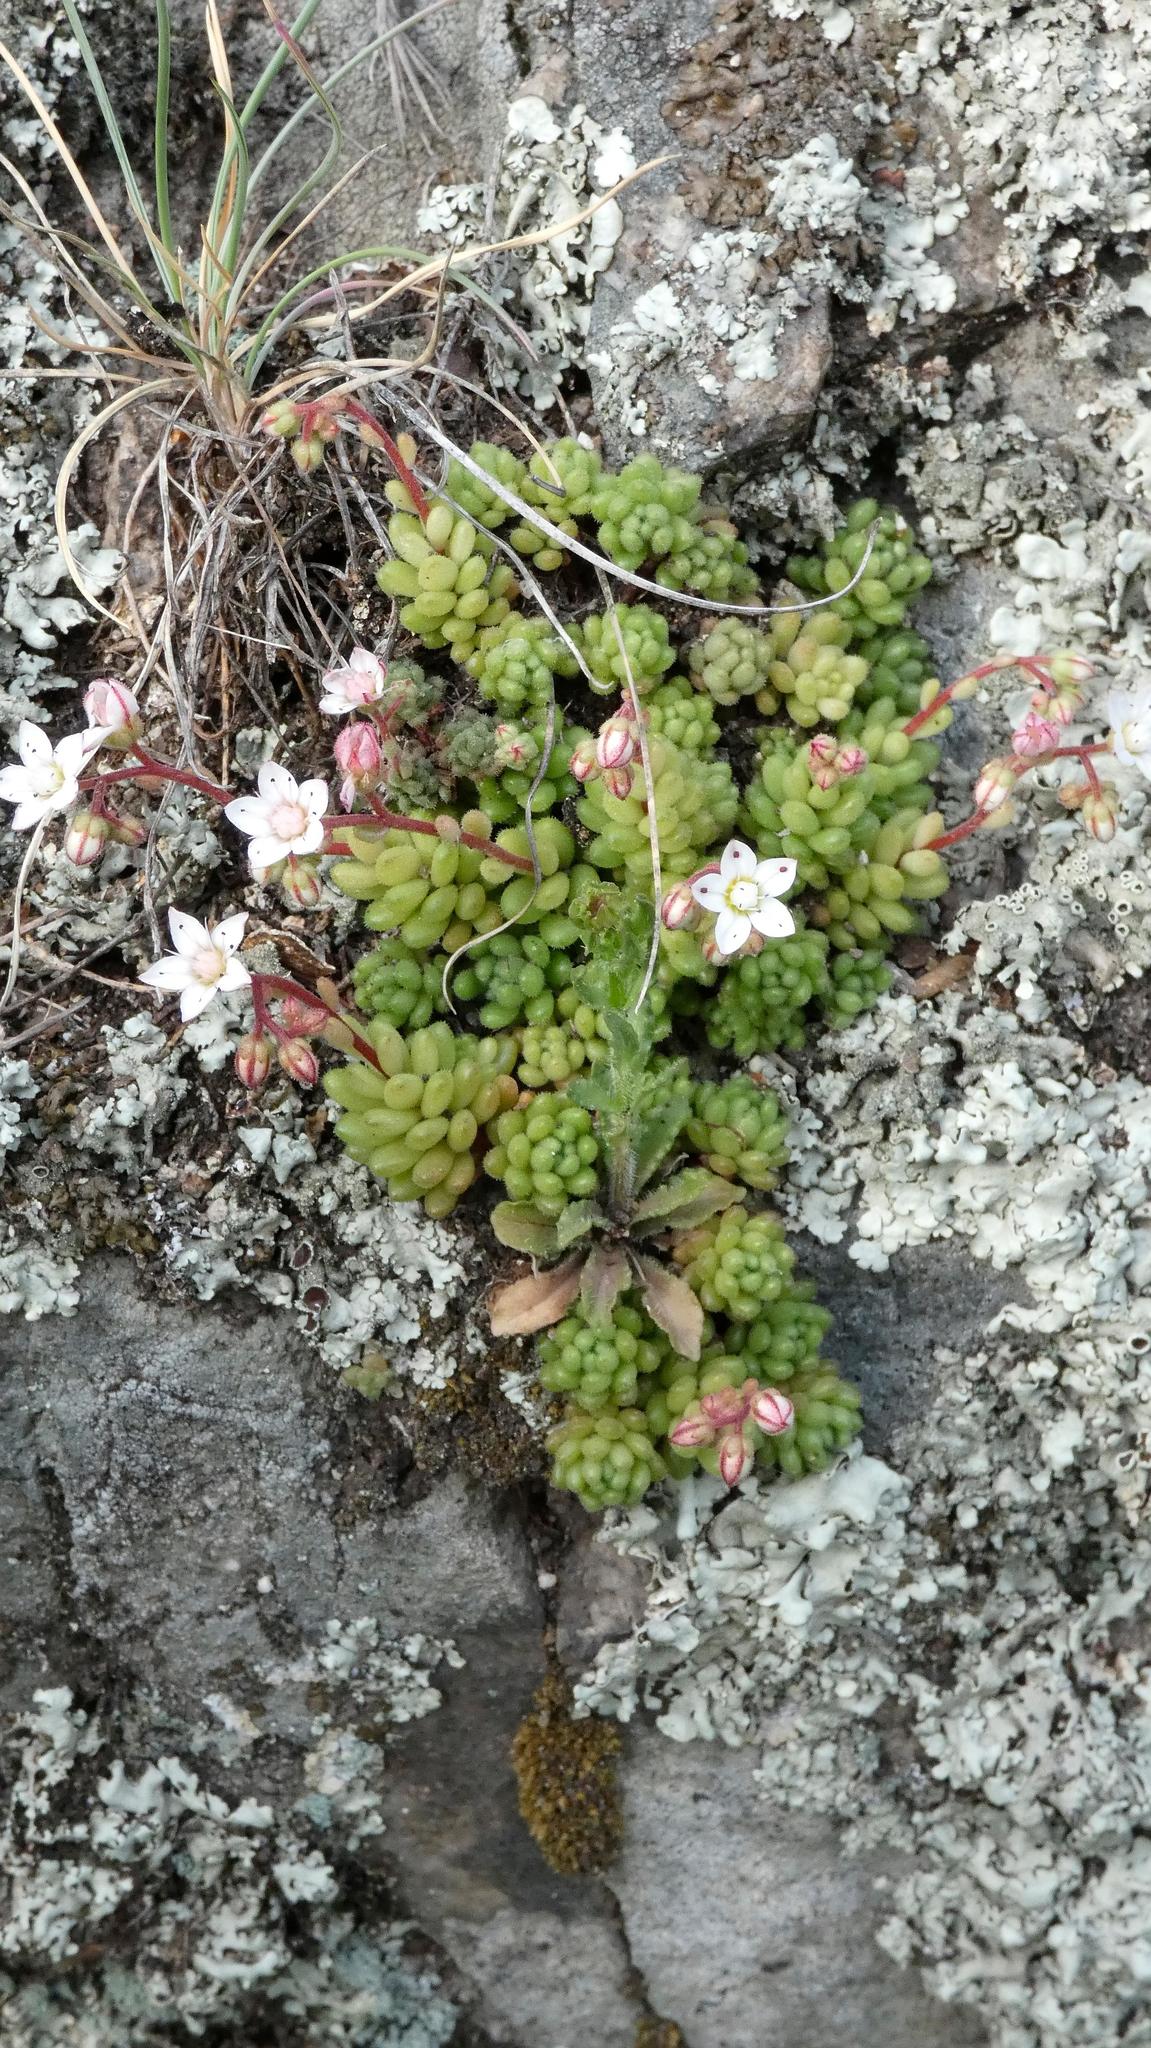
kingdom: Plantae
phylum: Tracheophyta
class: Magnoliopsida
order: Saxifragales
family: Crassulaceae
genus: Sedum
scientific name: Sedum hirsutum
